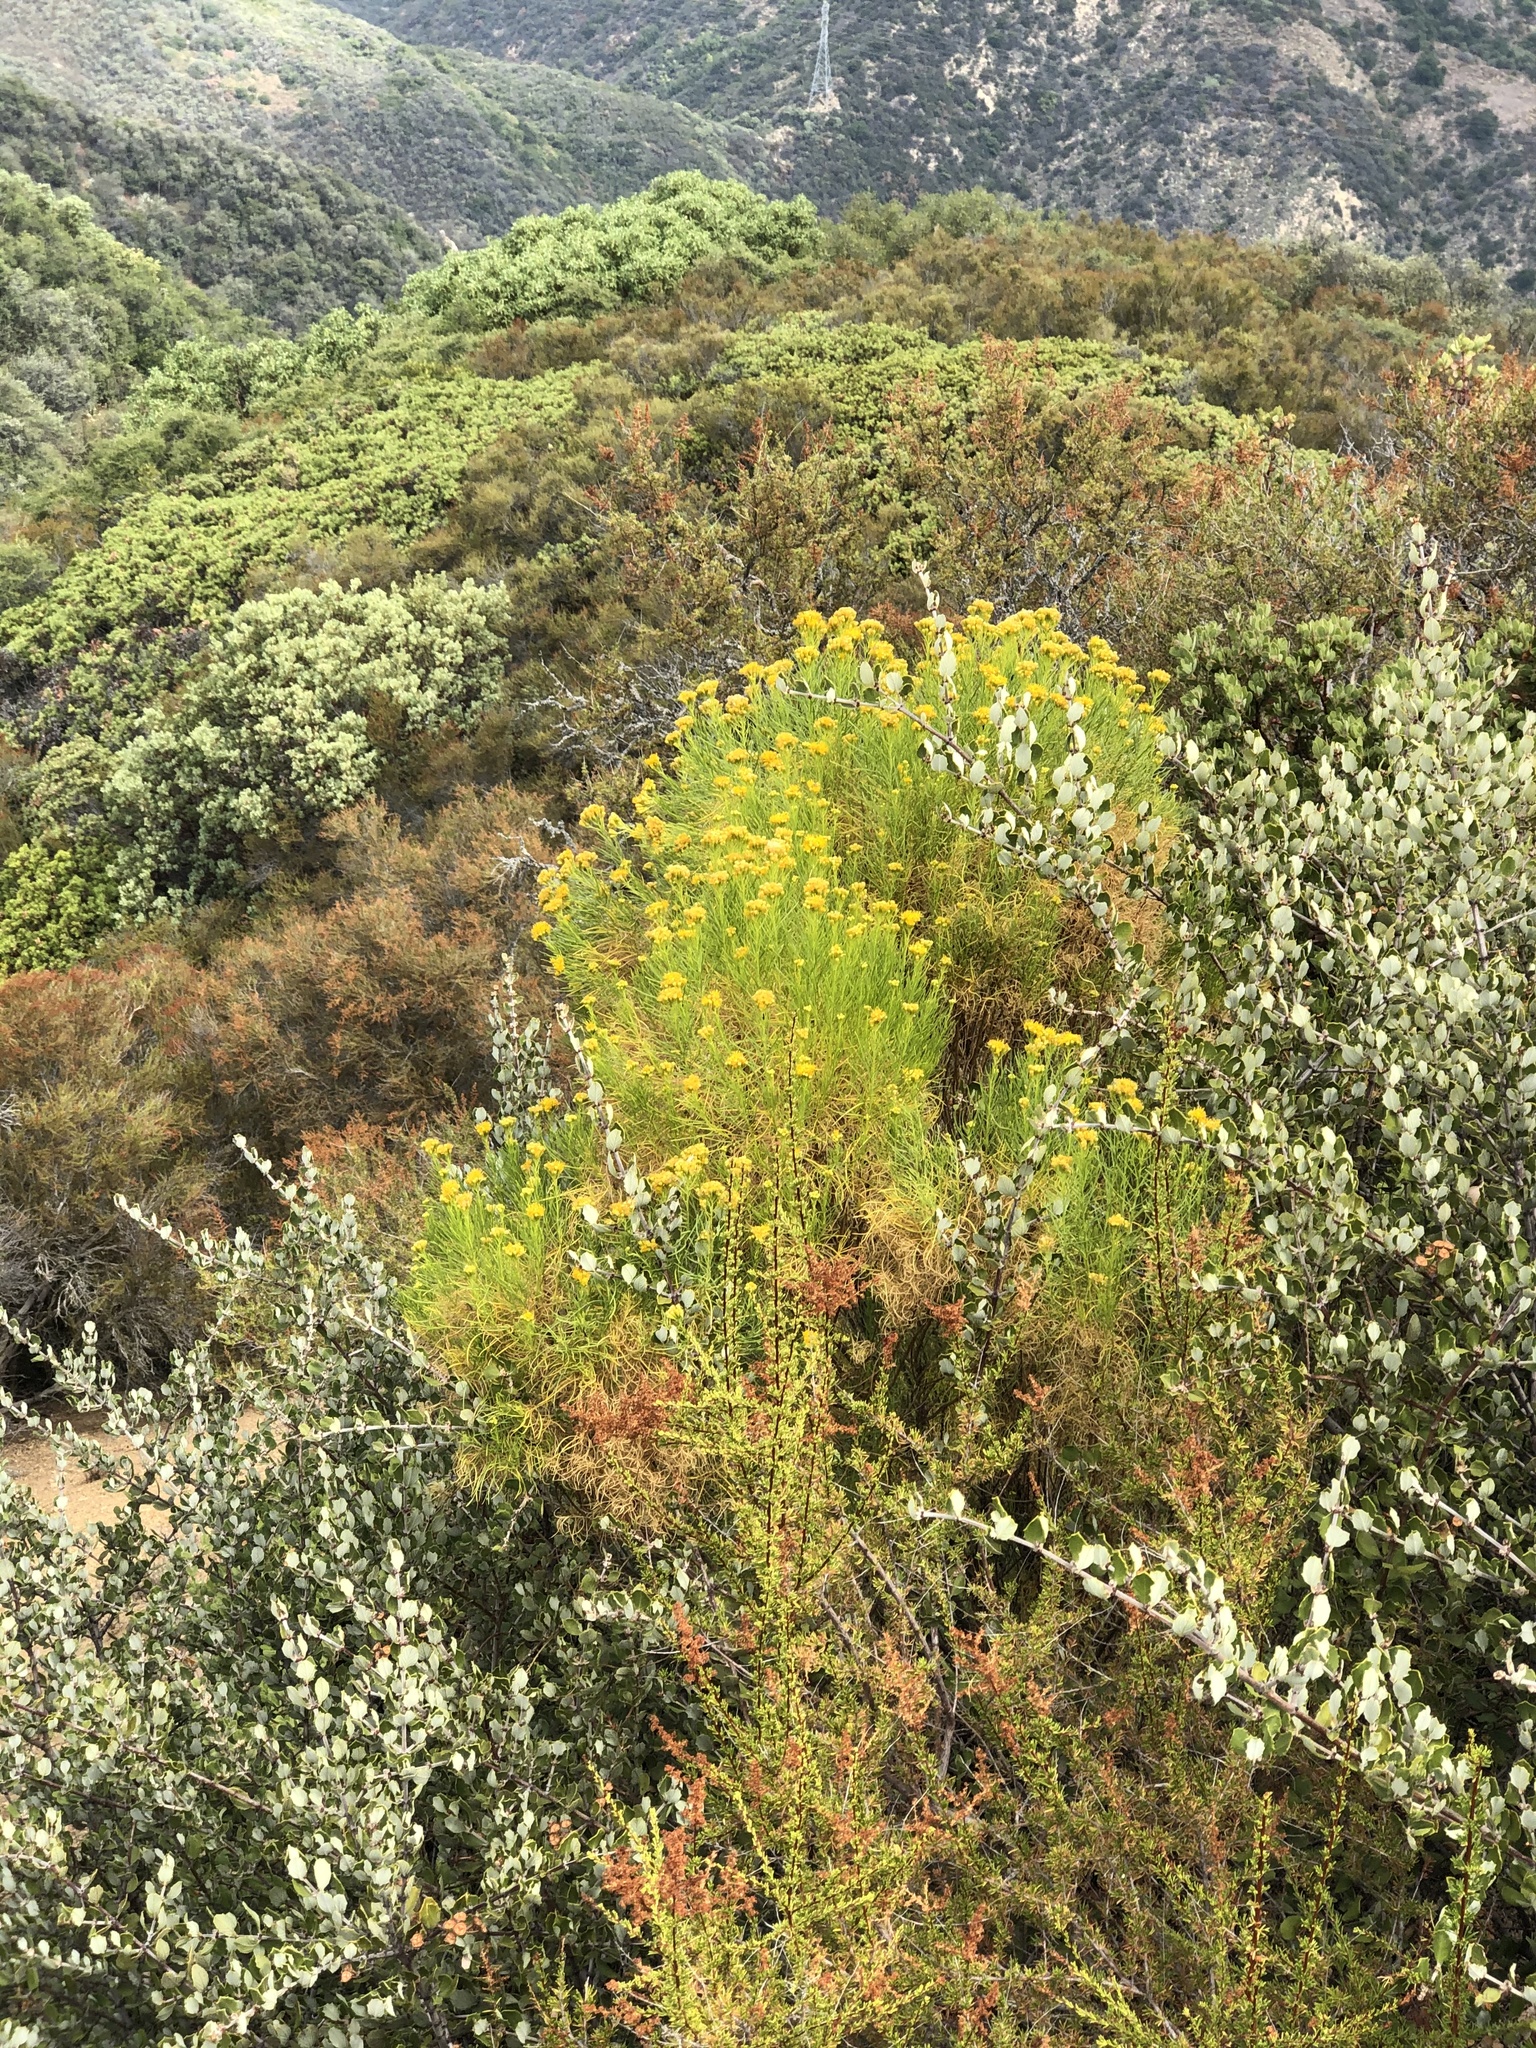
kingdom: Plantae
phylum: Tracheophyta
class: Magnoliopsida
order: Asterales
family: Asteraceae
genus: Ericameria
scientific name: Ericameria arborescens
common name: Goldenfleece
